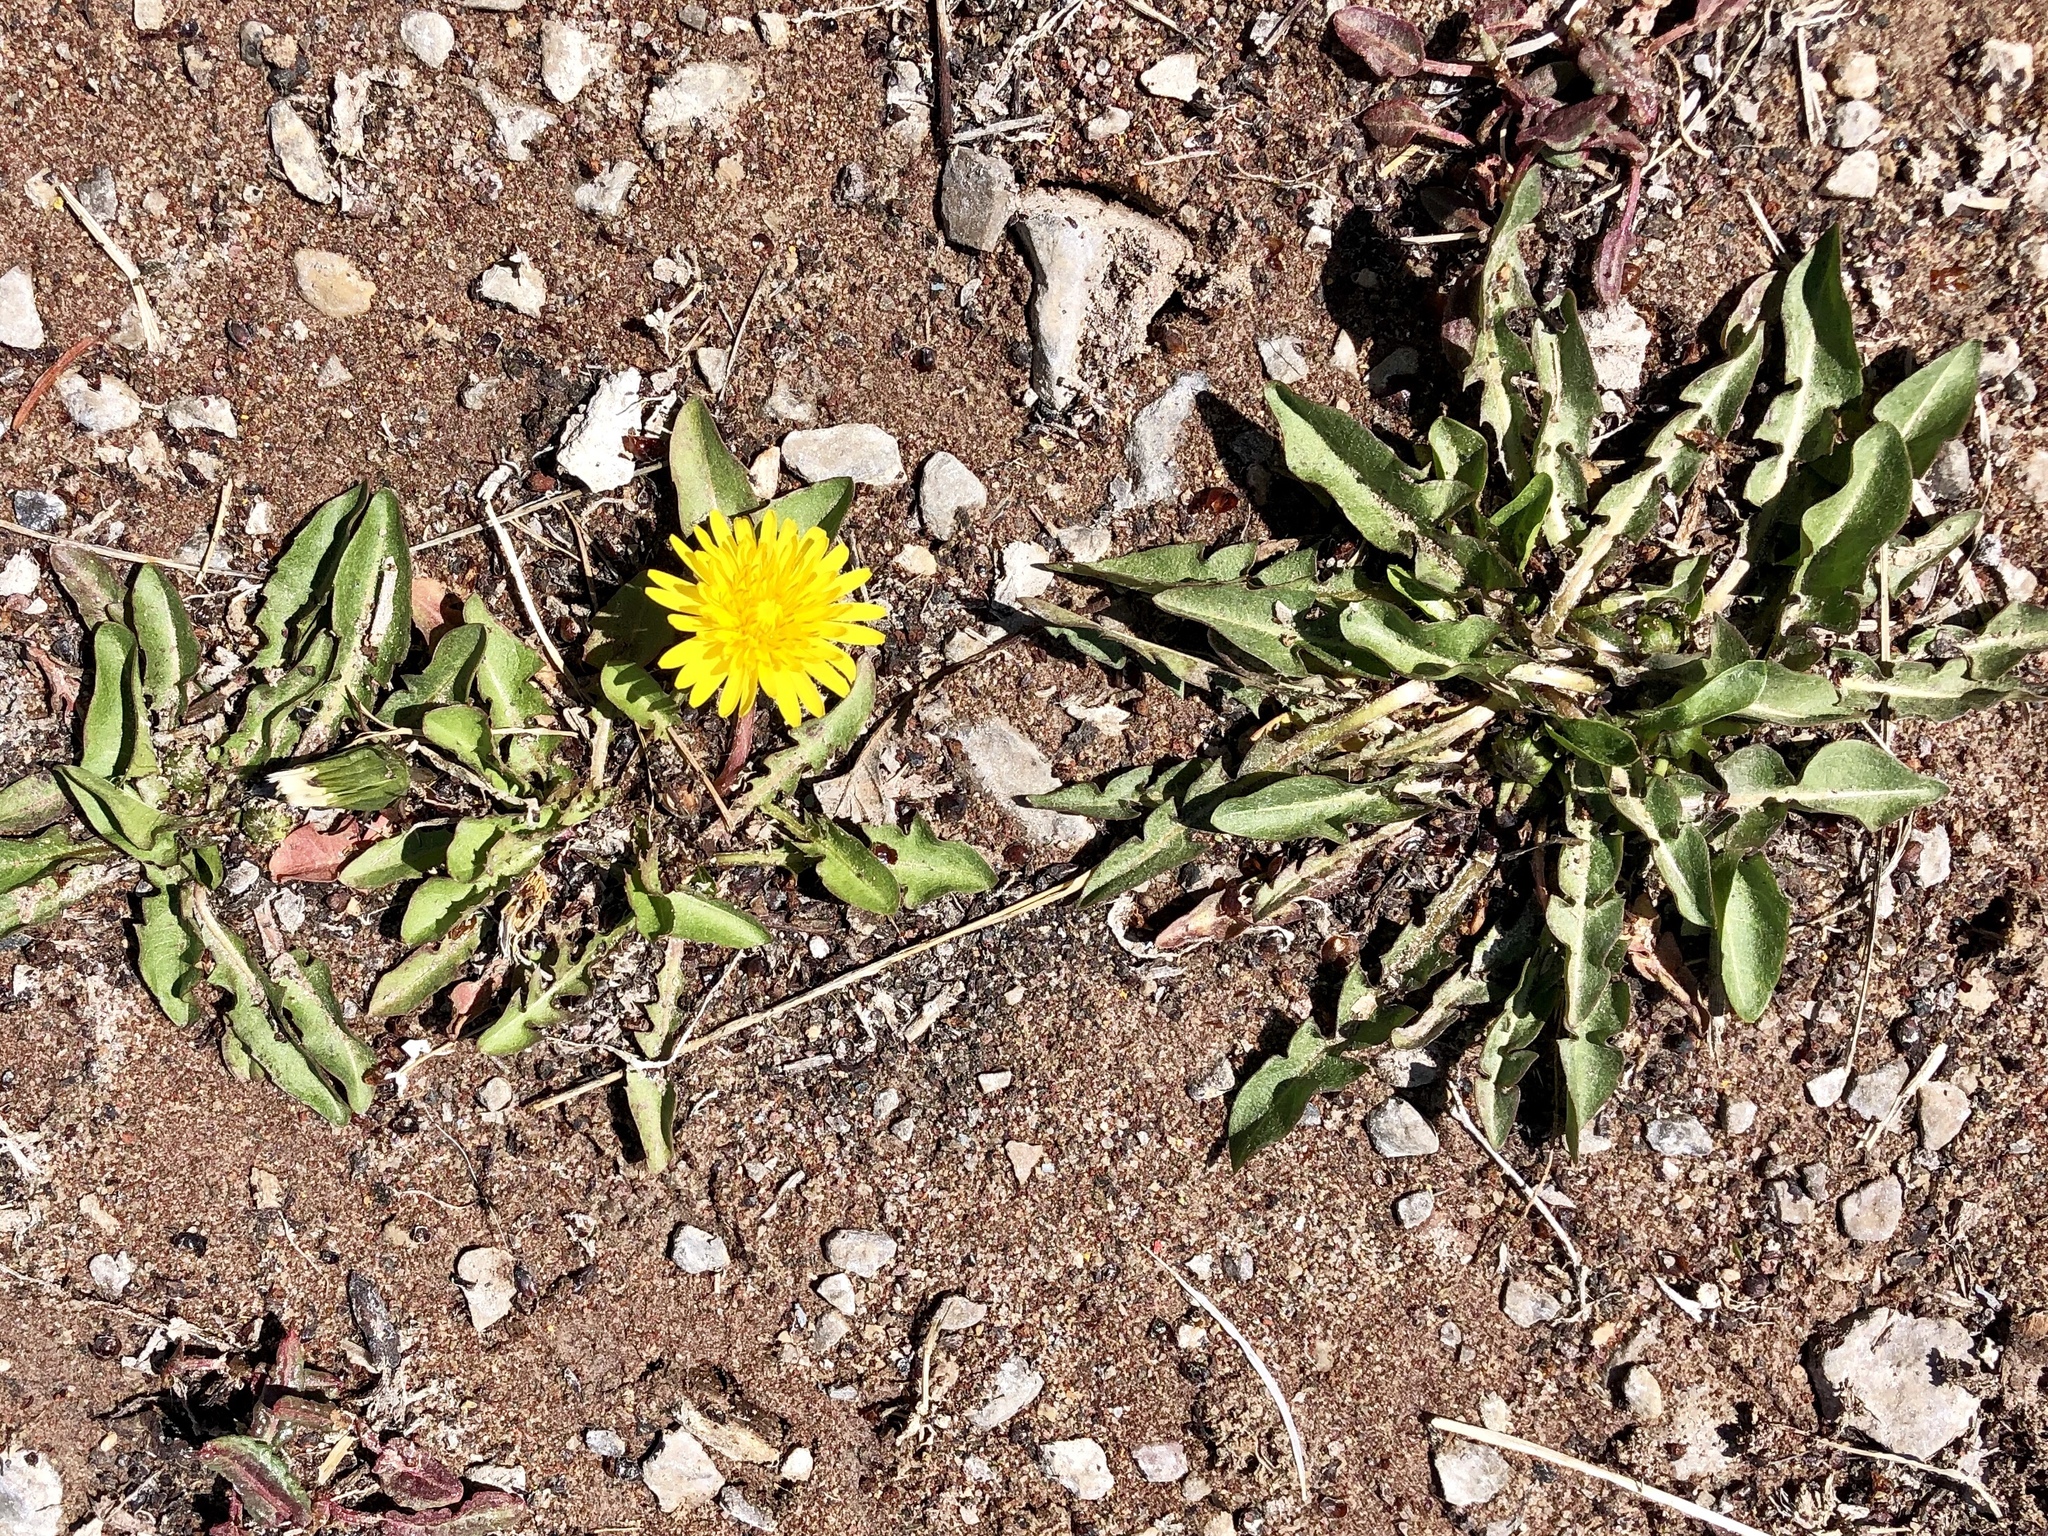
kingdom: Plantae
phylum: Tracheophyta
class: Magnoliopsida
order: Asterales
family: Asteraceae
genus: Taraxacum
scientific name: Taraxacum officinale
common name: Common dandelion
